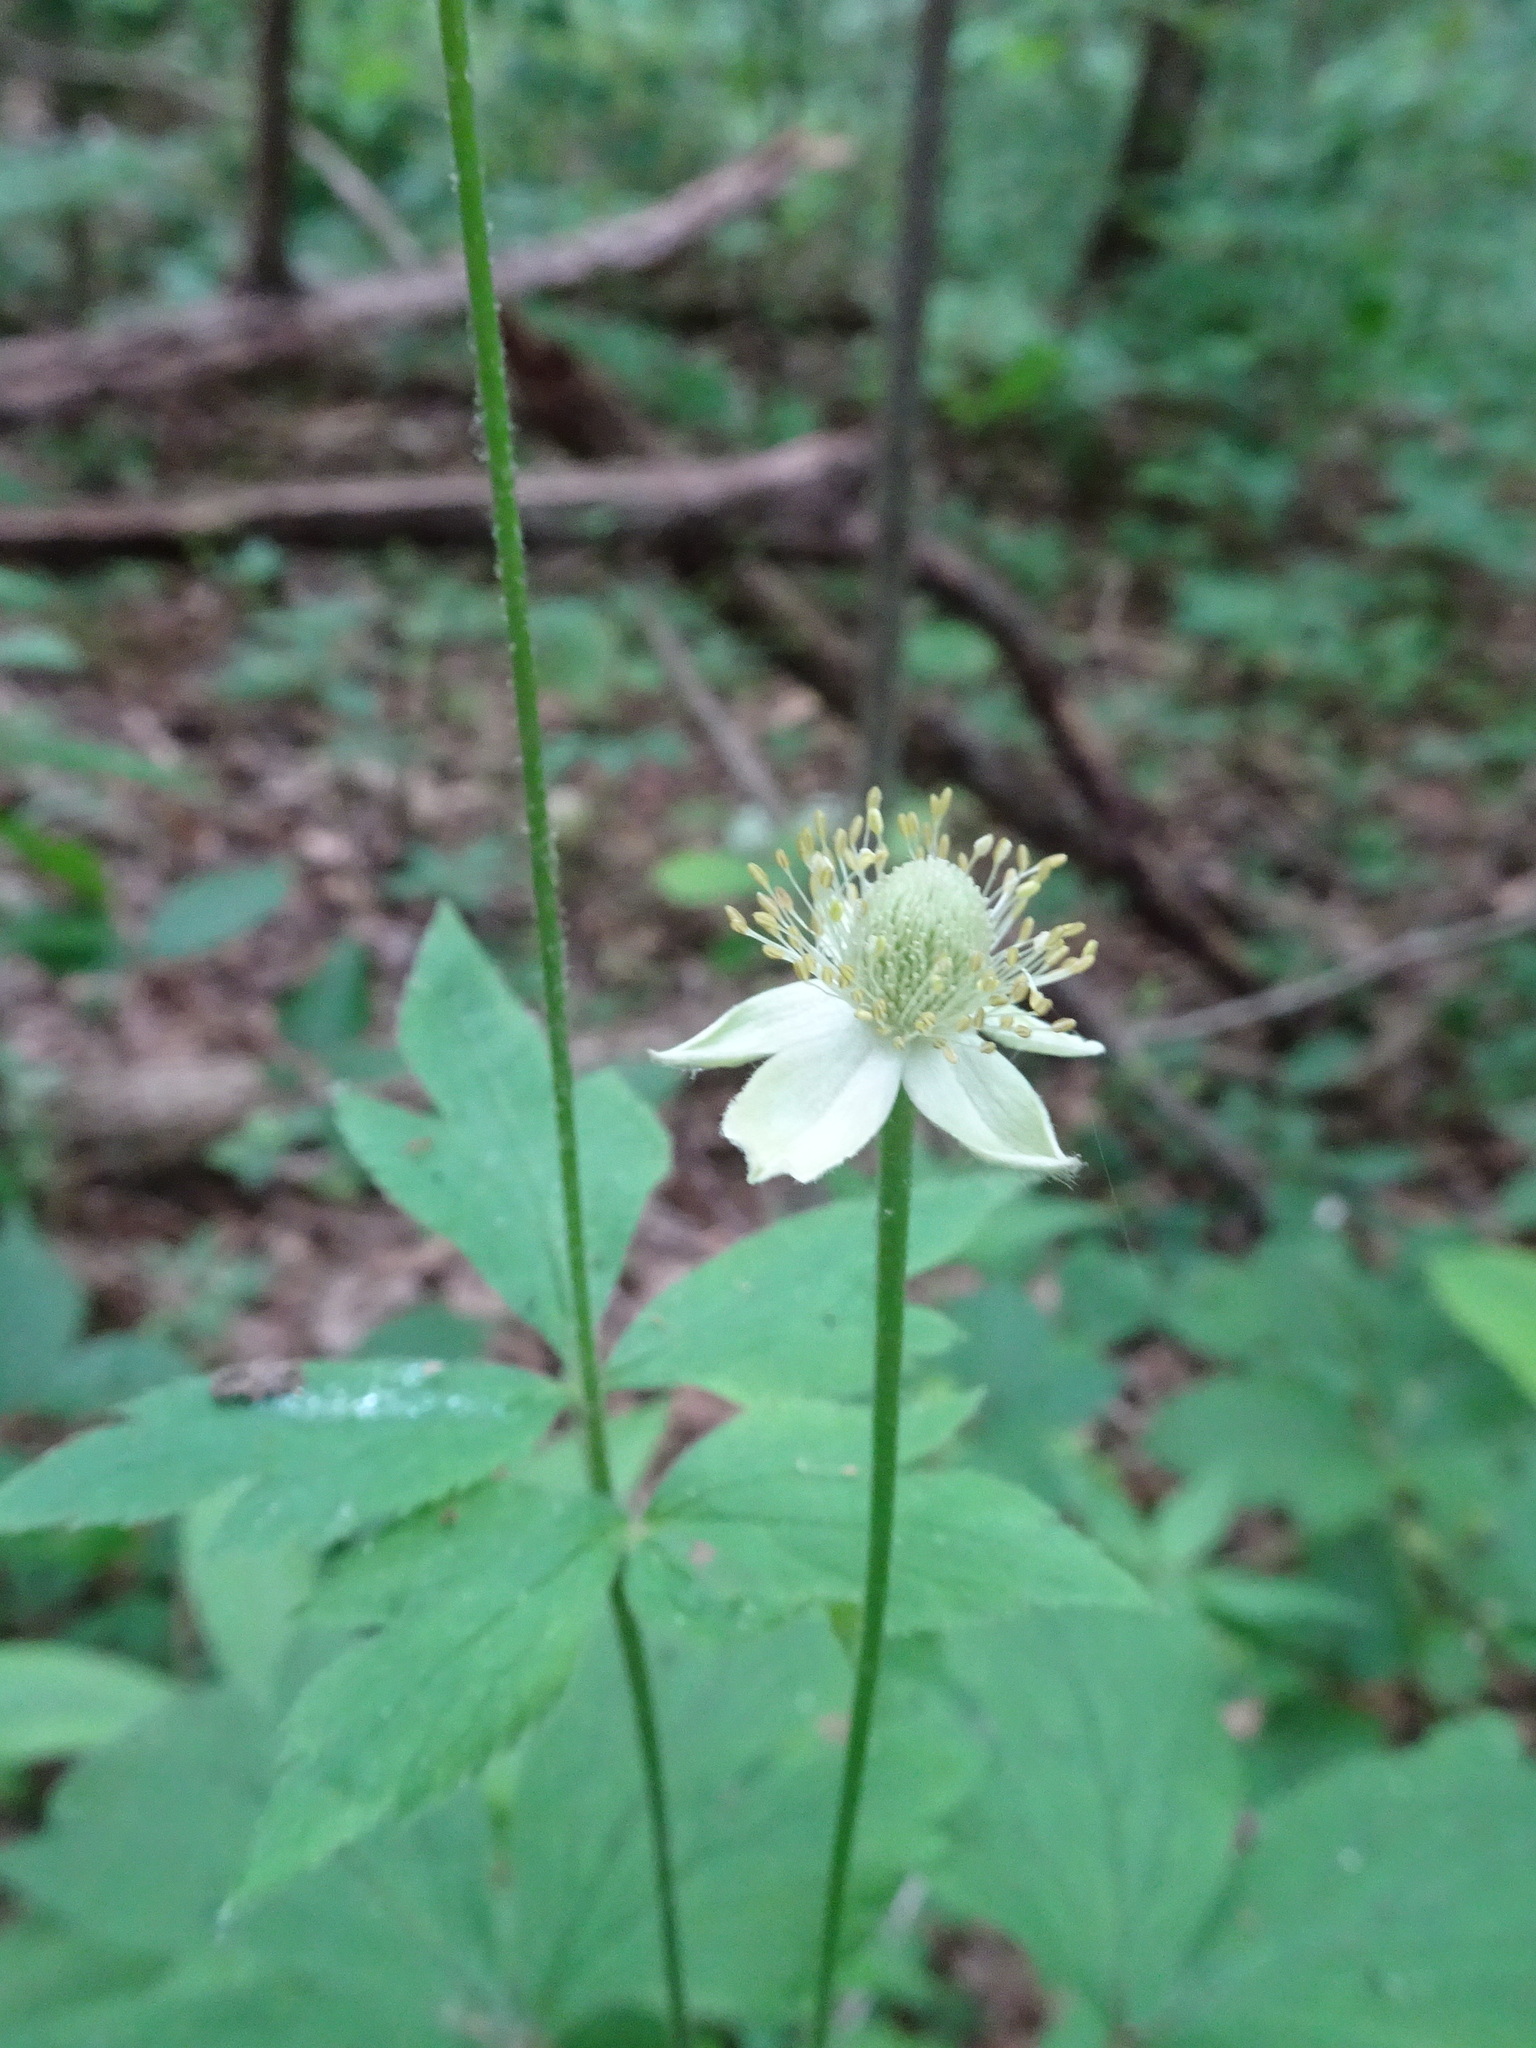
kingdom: Plantae
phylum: Tracheophyta
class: Magnoliopsida
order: Ranunculales
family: Ranunculaceae
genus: Anemone
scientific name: Anemone virginiana
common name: Tall anemone
